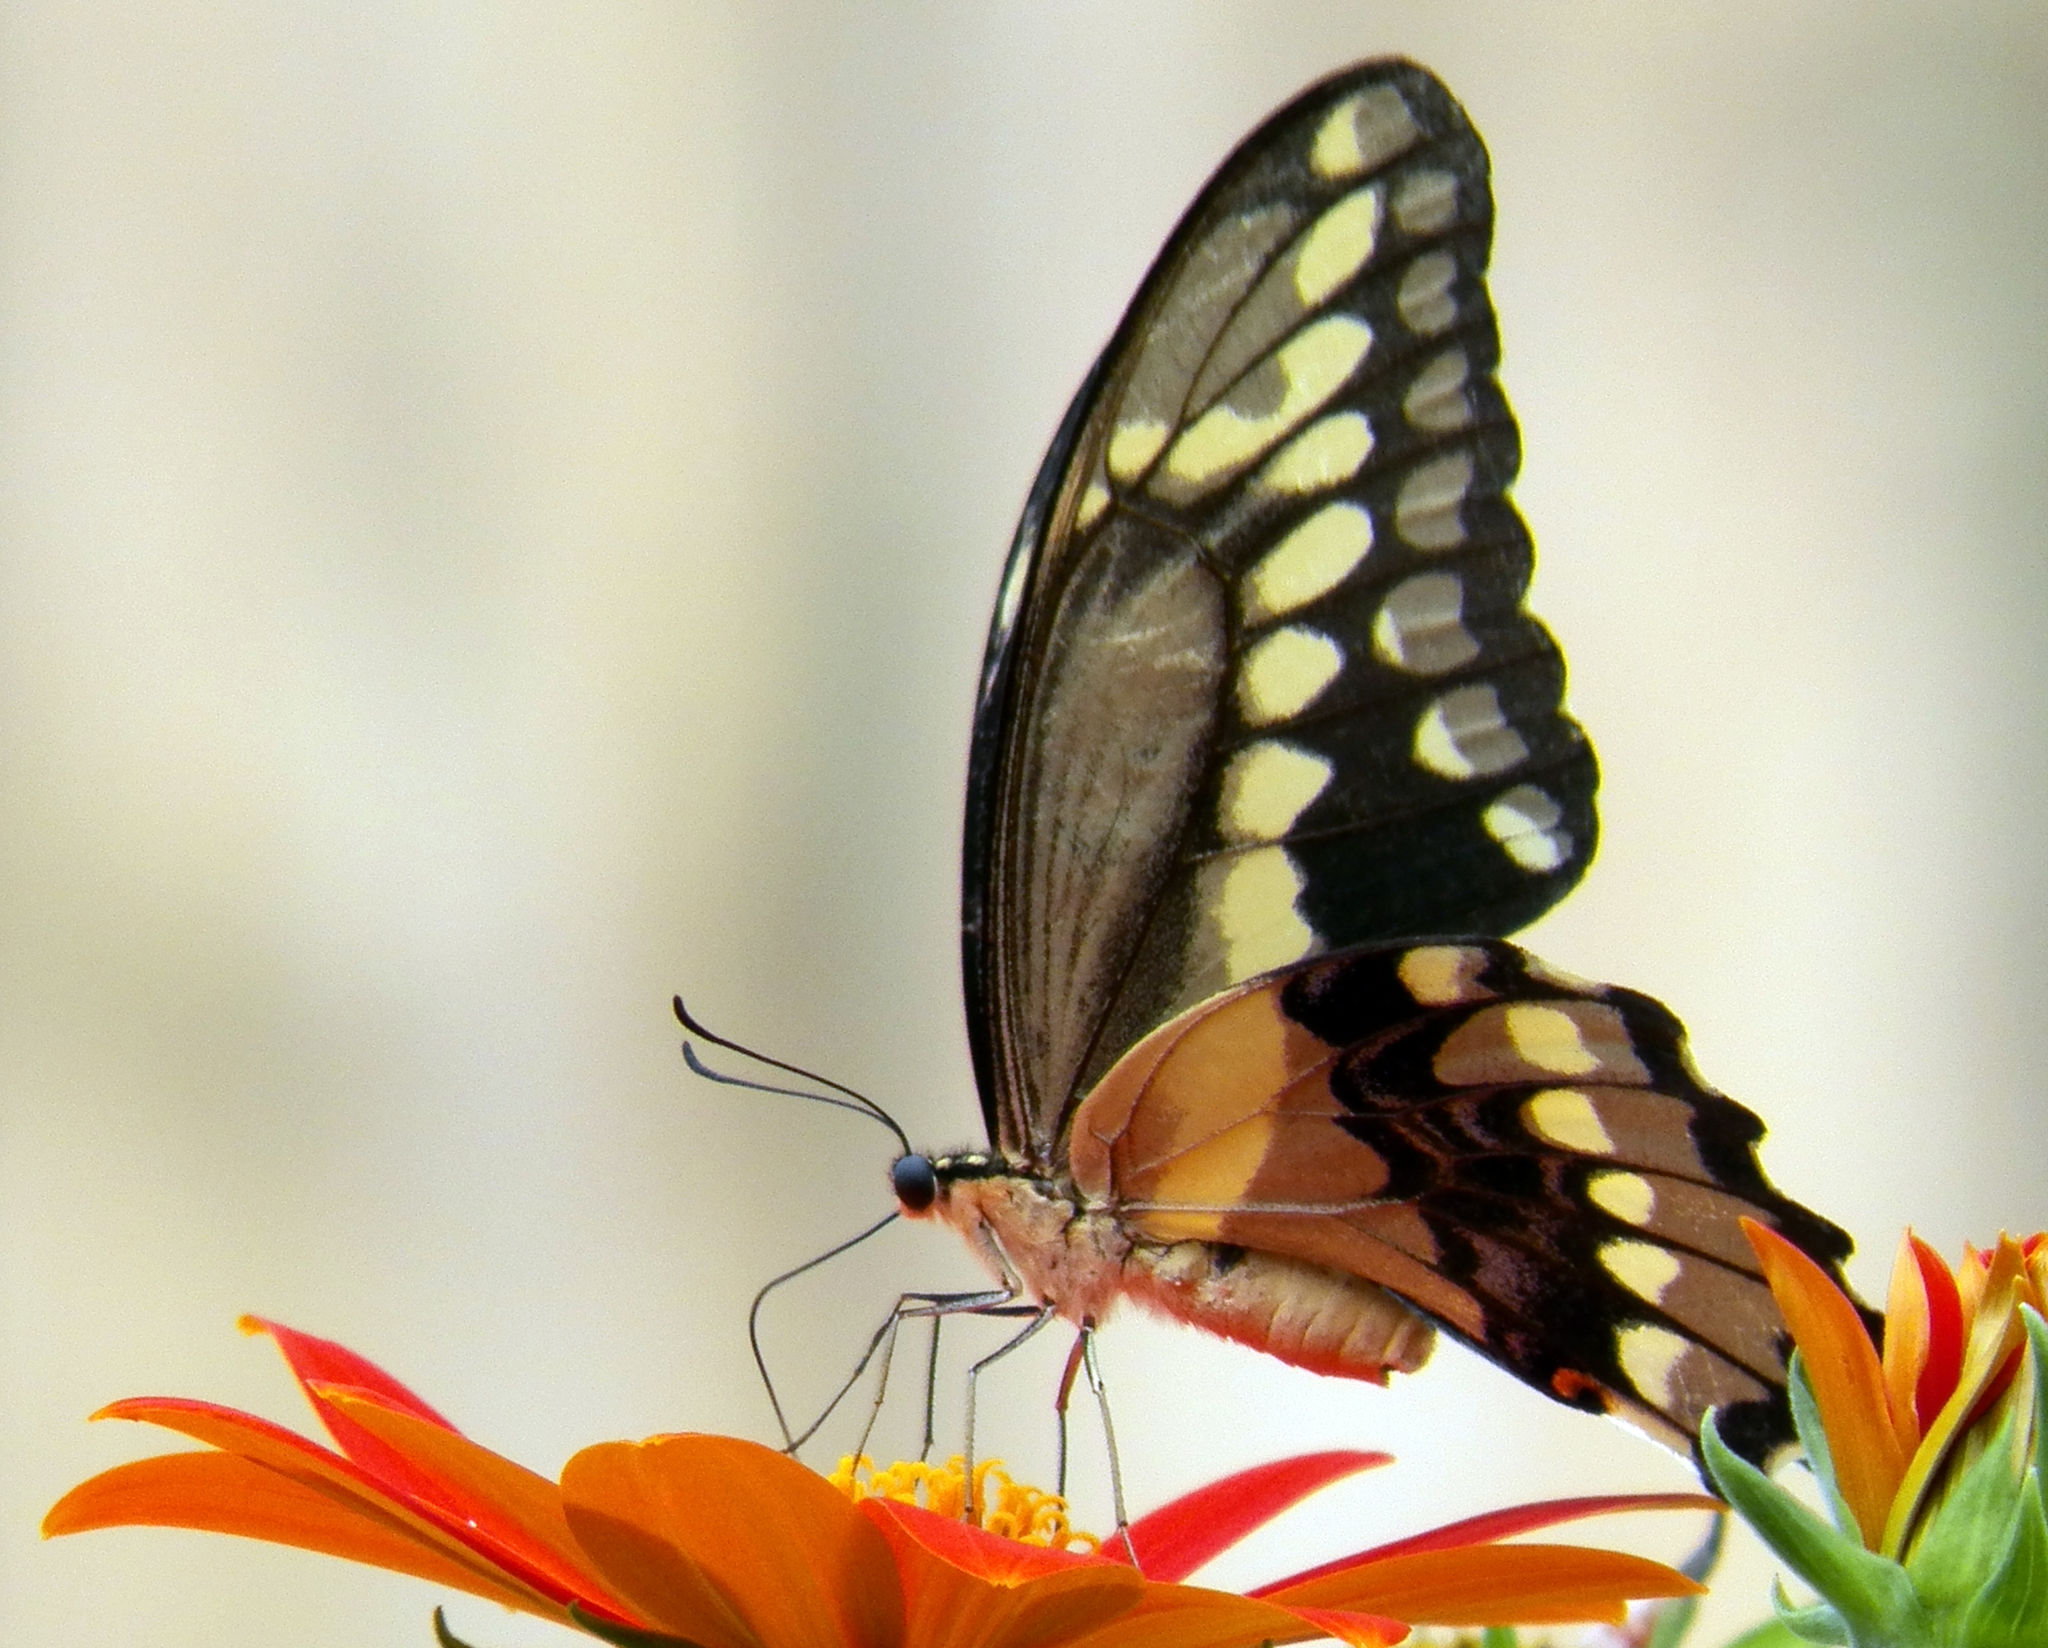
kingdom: Animalia
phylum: Arthropoda
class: Insecta
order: Lepidoptera
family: Papilionidae
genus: Papilio
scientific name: Papilio cresphontes
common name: Giant swallowtail
